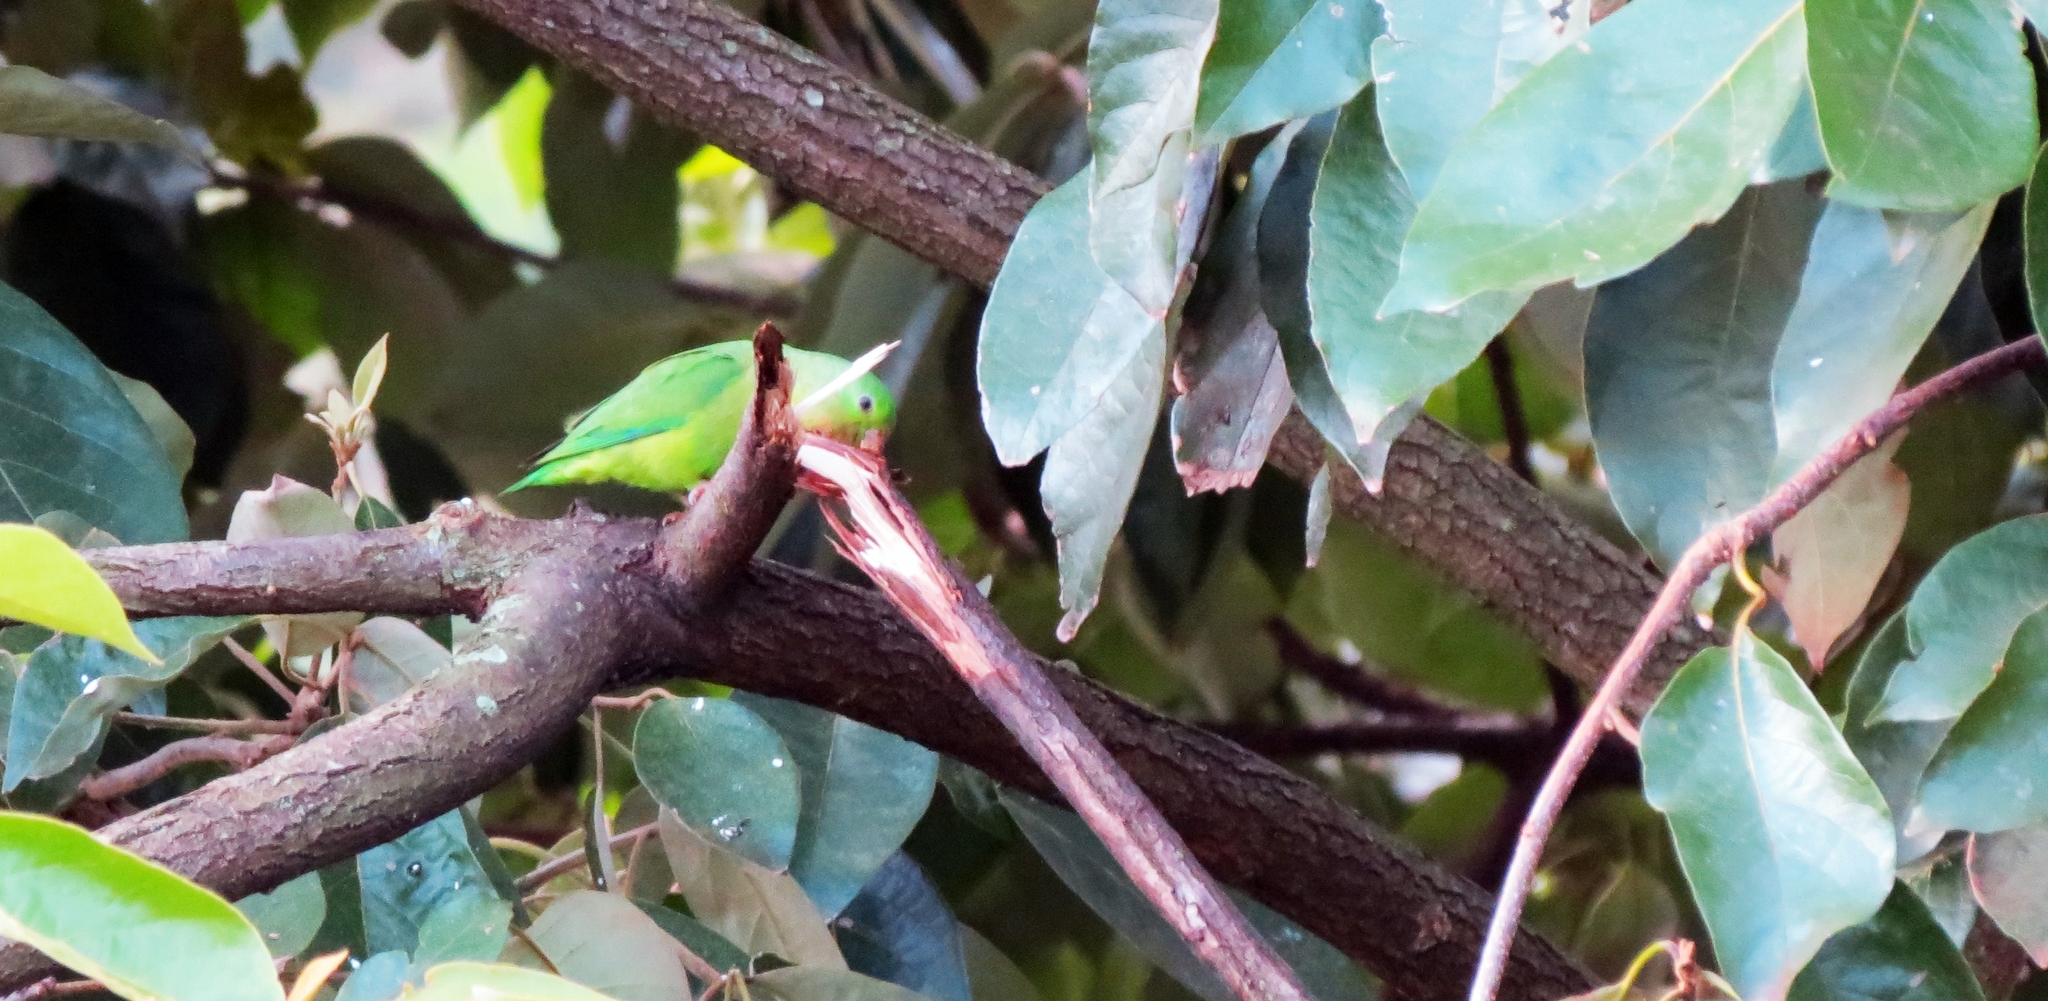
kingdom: Animalia
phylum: Chordata
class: Aves
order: Psittaciformes
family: Psittacidae
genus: Forpus
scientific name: Forpus conspicillatus
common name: Spectacled parrotlet
